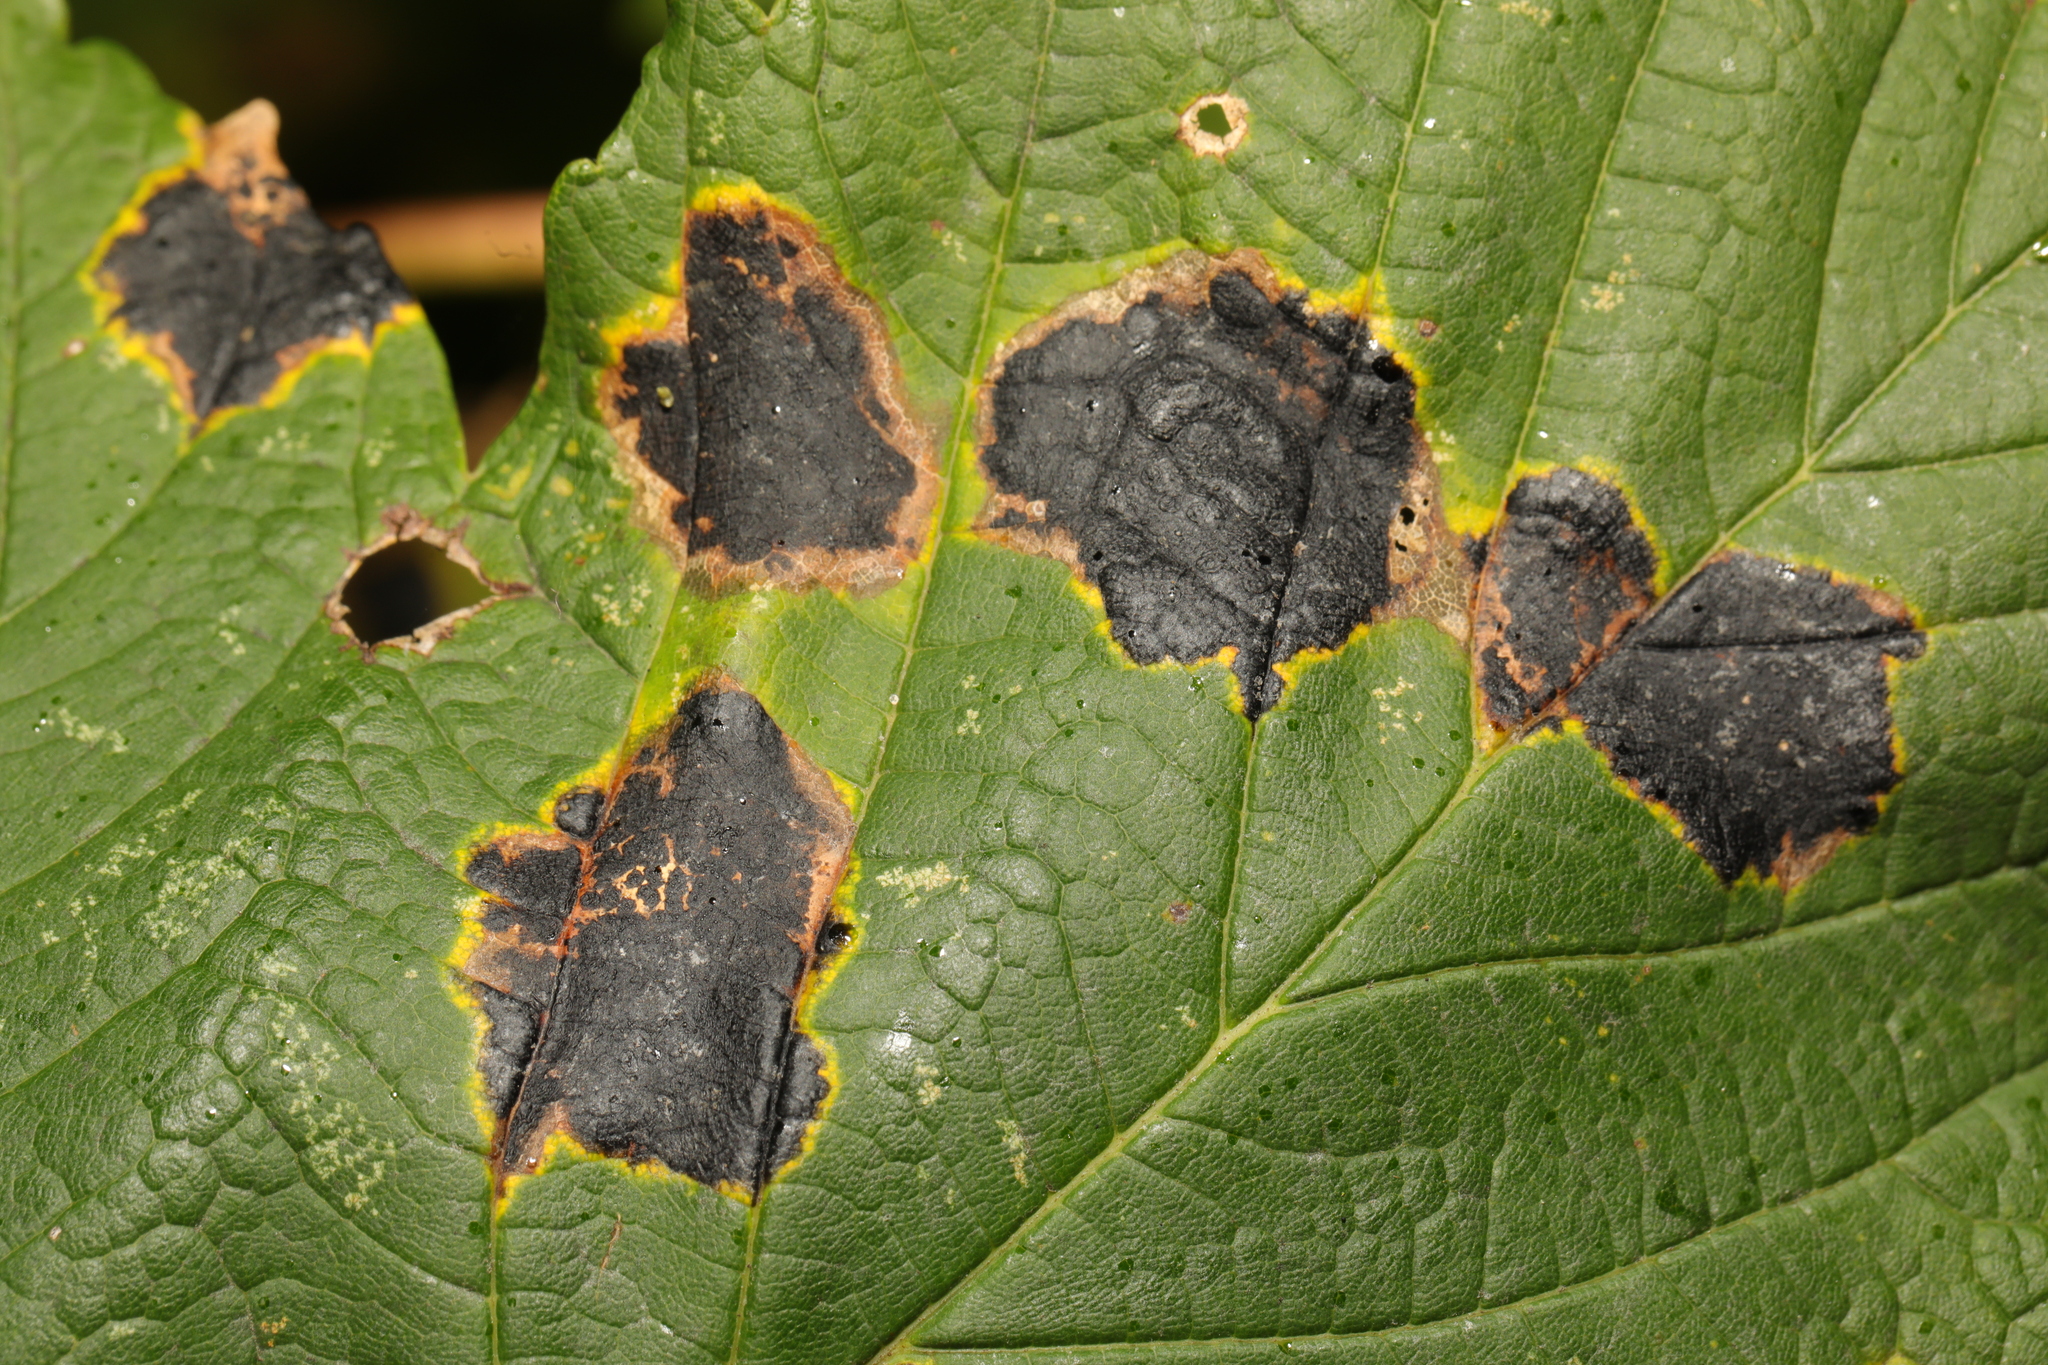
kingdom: Fungi
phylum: Ascomycota
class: Leotiomycetes
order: Rhytismatales
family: Rhytismataceae
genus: Rhytisma
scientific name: Rhytisma acerinum
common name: European tar spot
